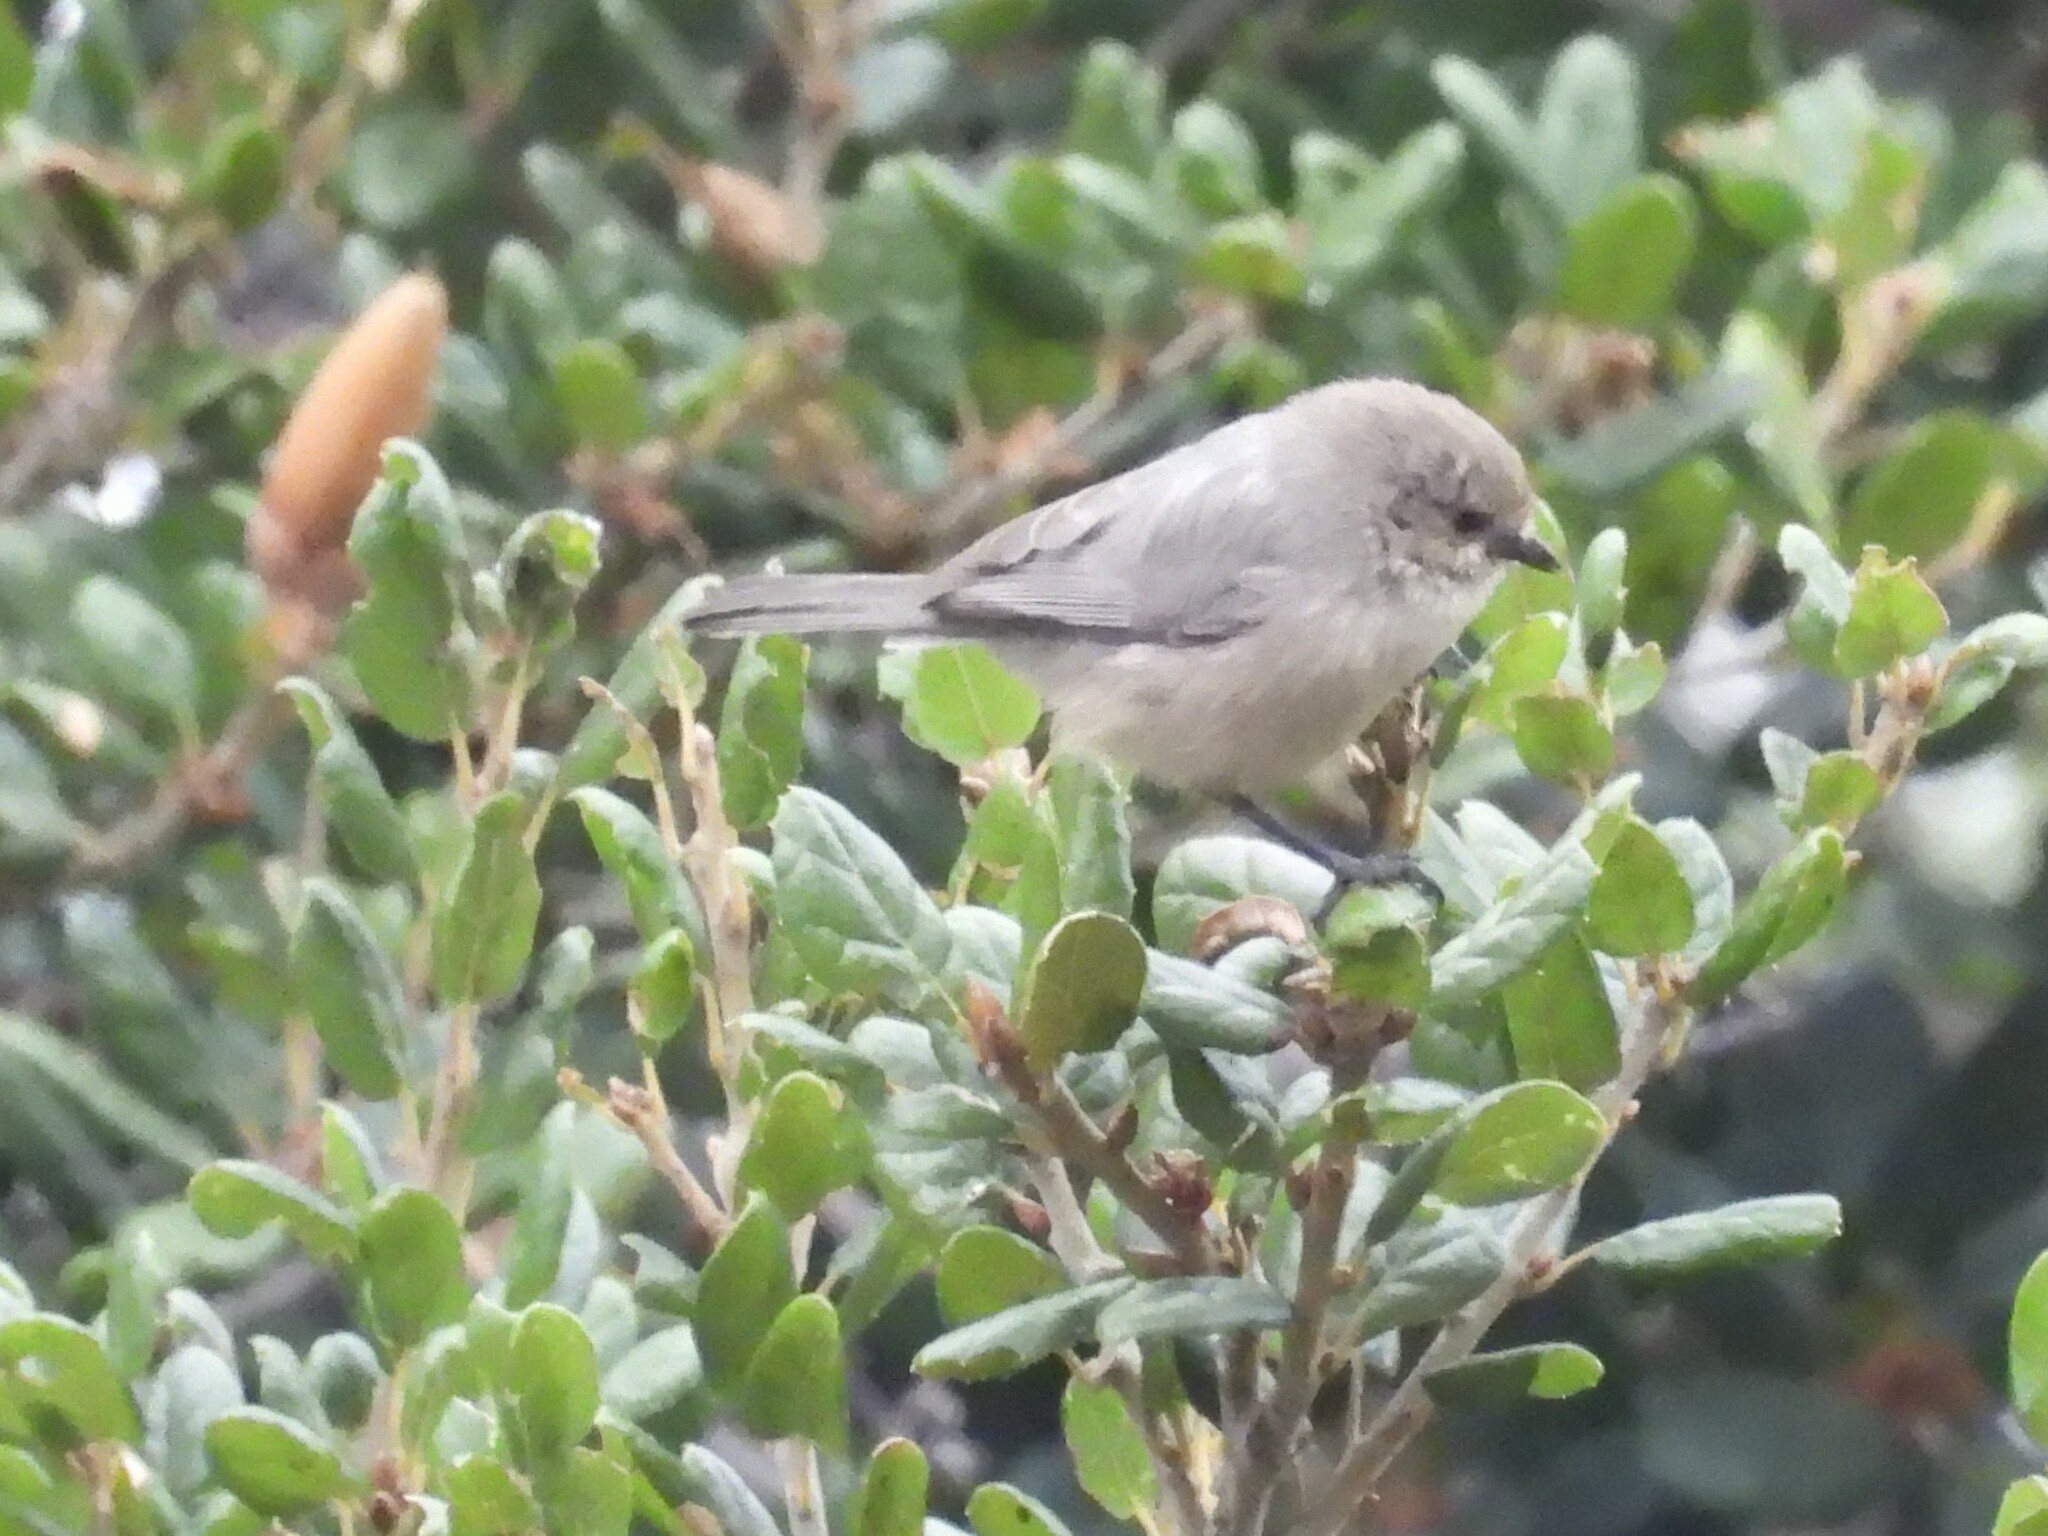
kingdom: Animalia
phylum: Chordata
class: Aves
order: Passeriformes
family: Aegithalidae
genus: Psaltriparus
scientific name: Psaltriparus minimus
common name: American bushtit
